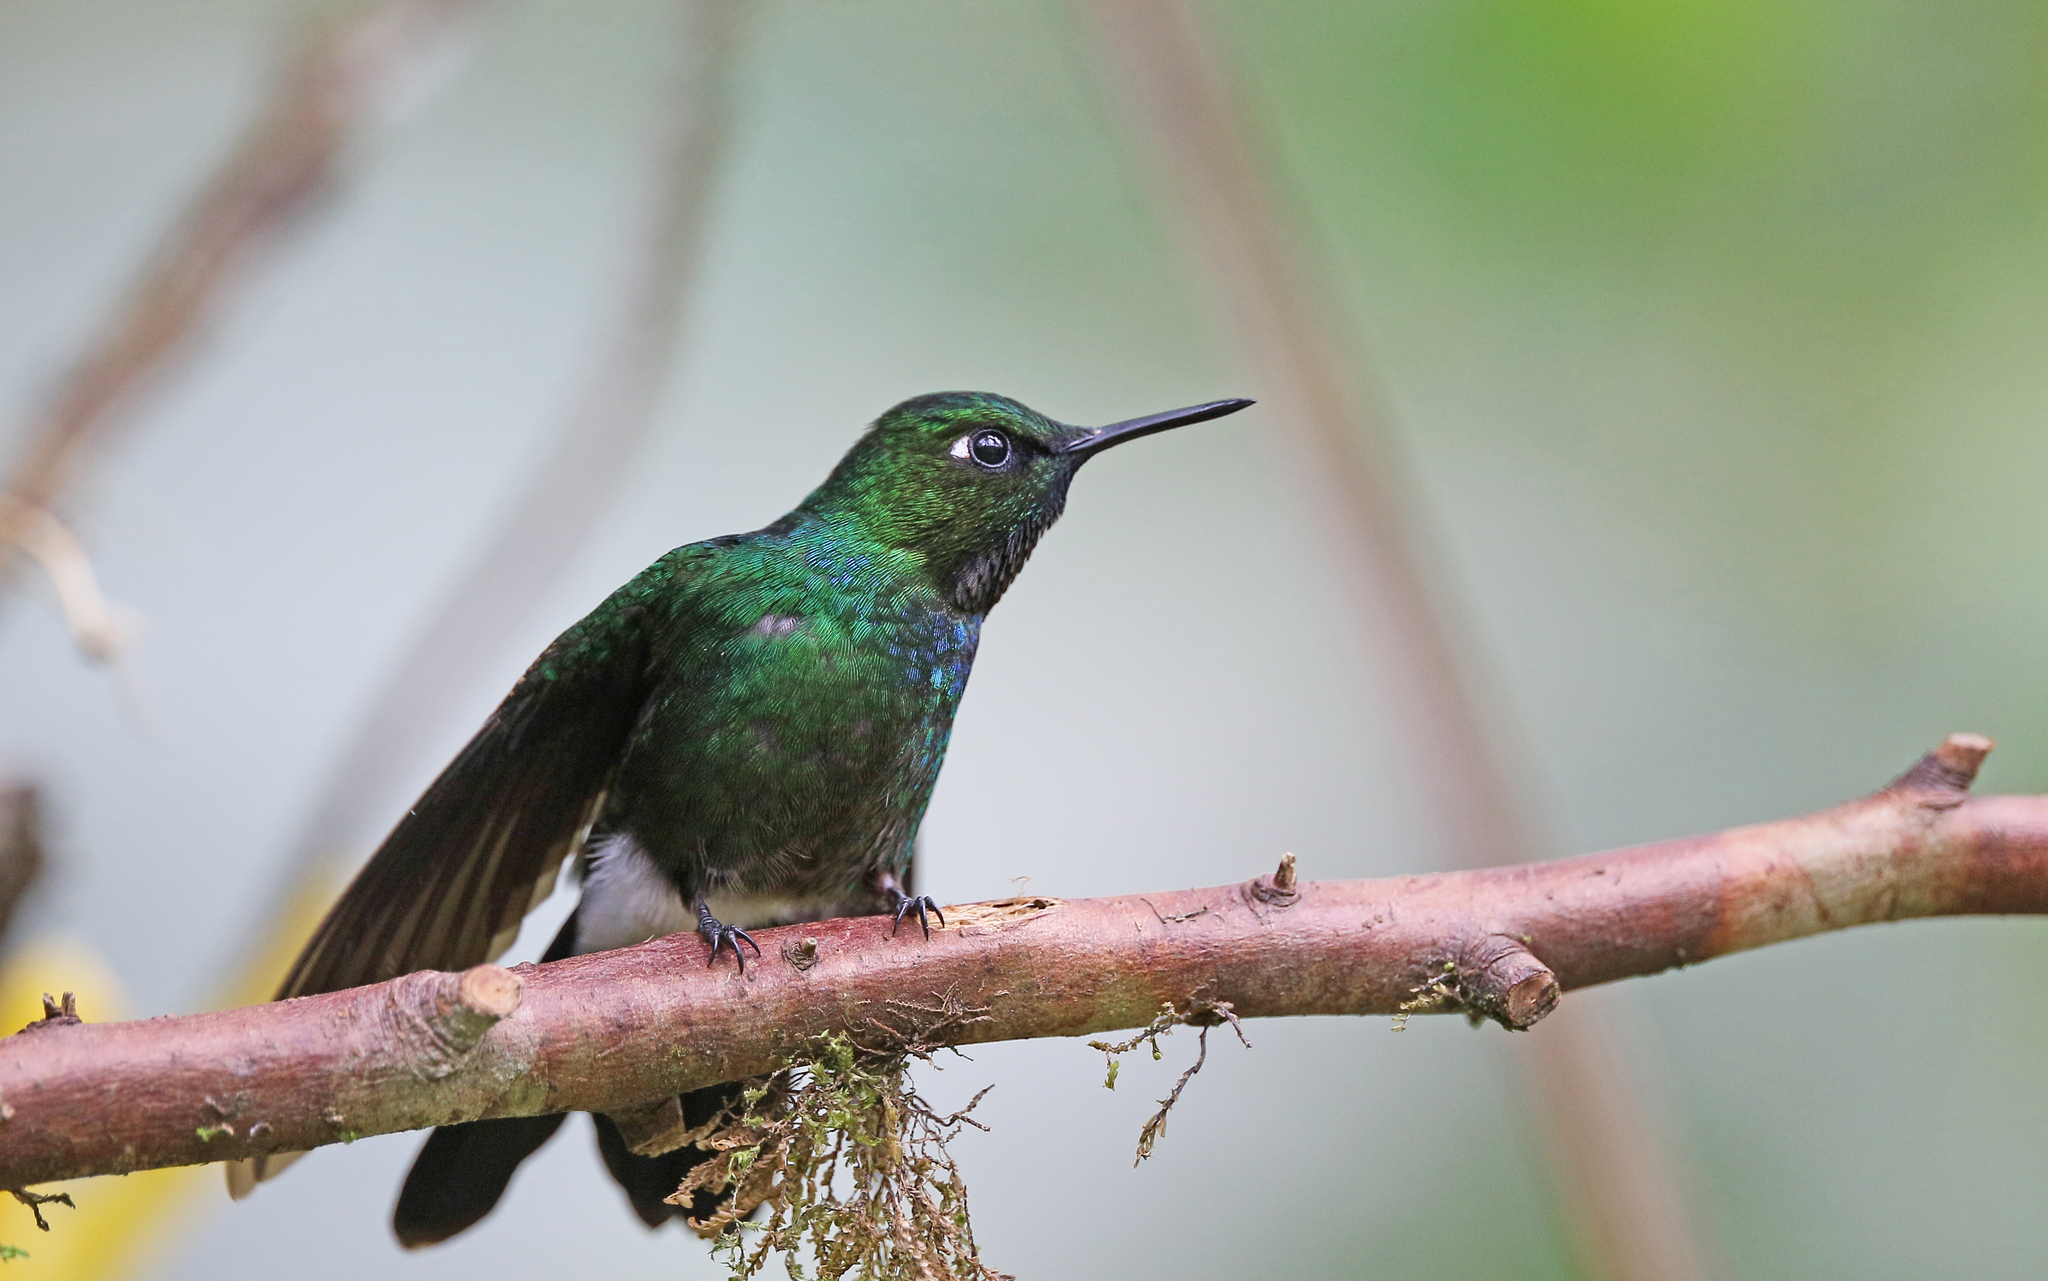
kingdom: Animalia
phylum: Chordata
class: Aves
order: Apodiformes
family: Trochilidae
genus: Heliangelus
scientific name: Heliangelus exortis
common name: Tourmaline sunangel
